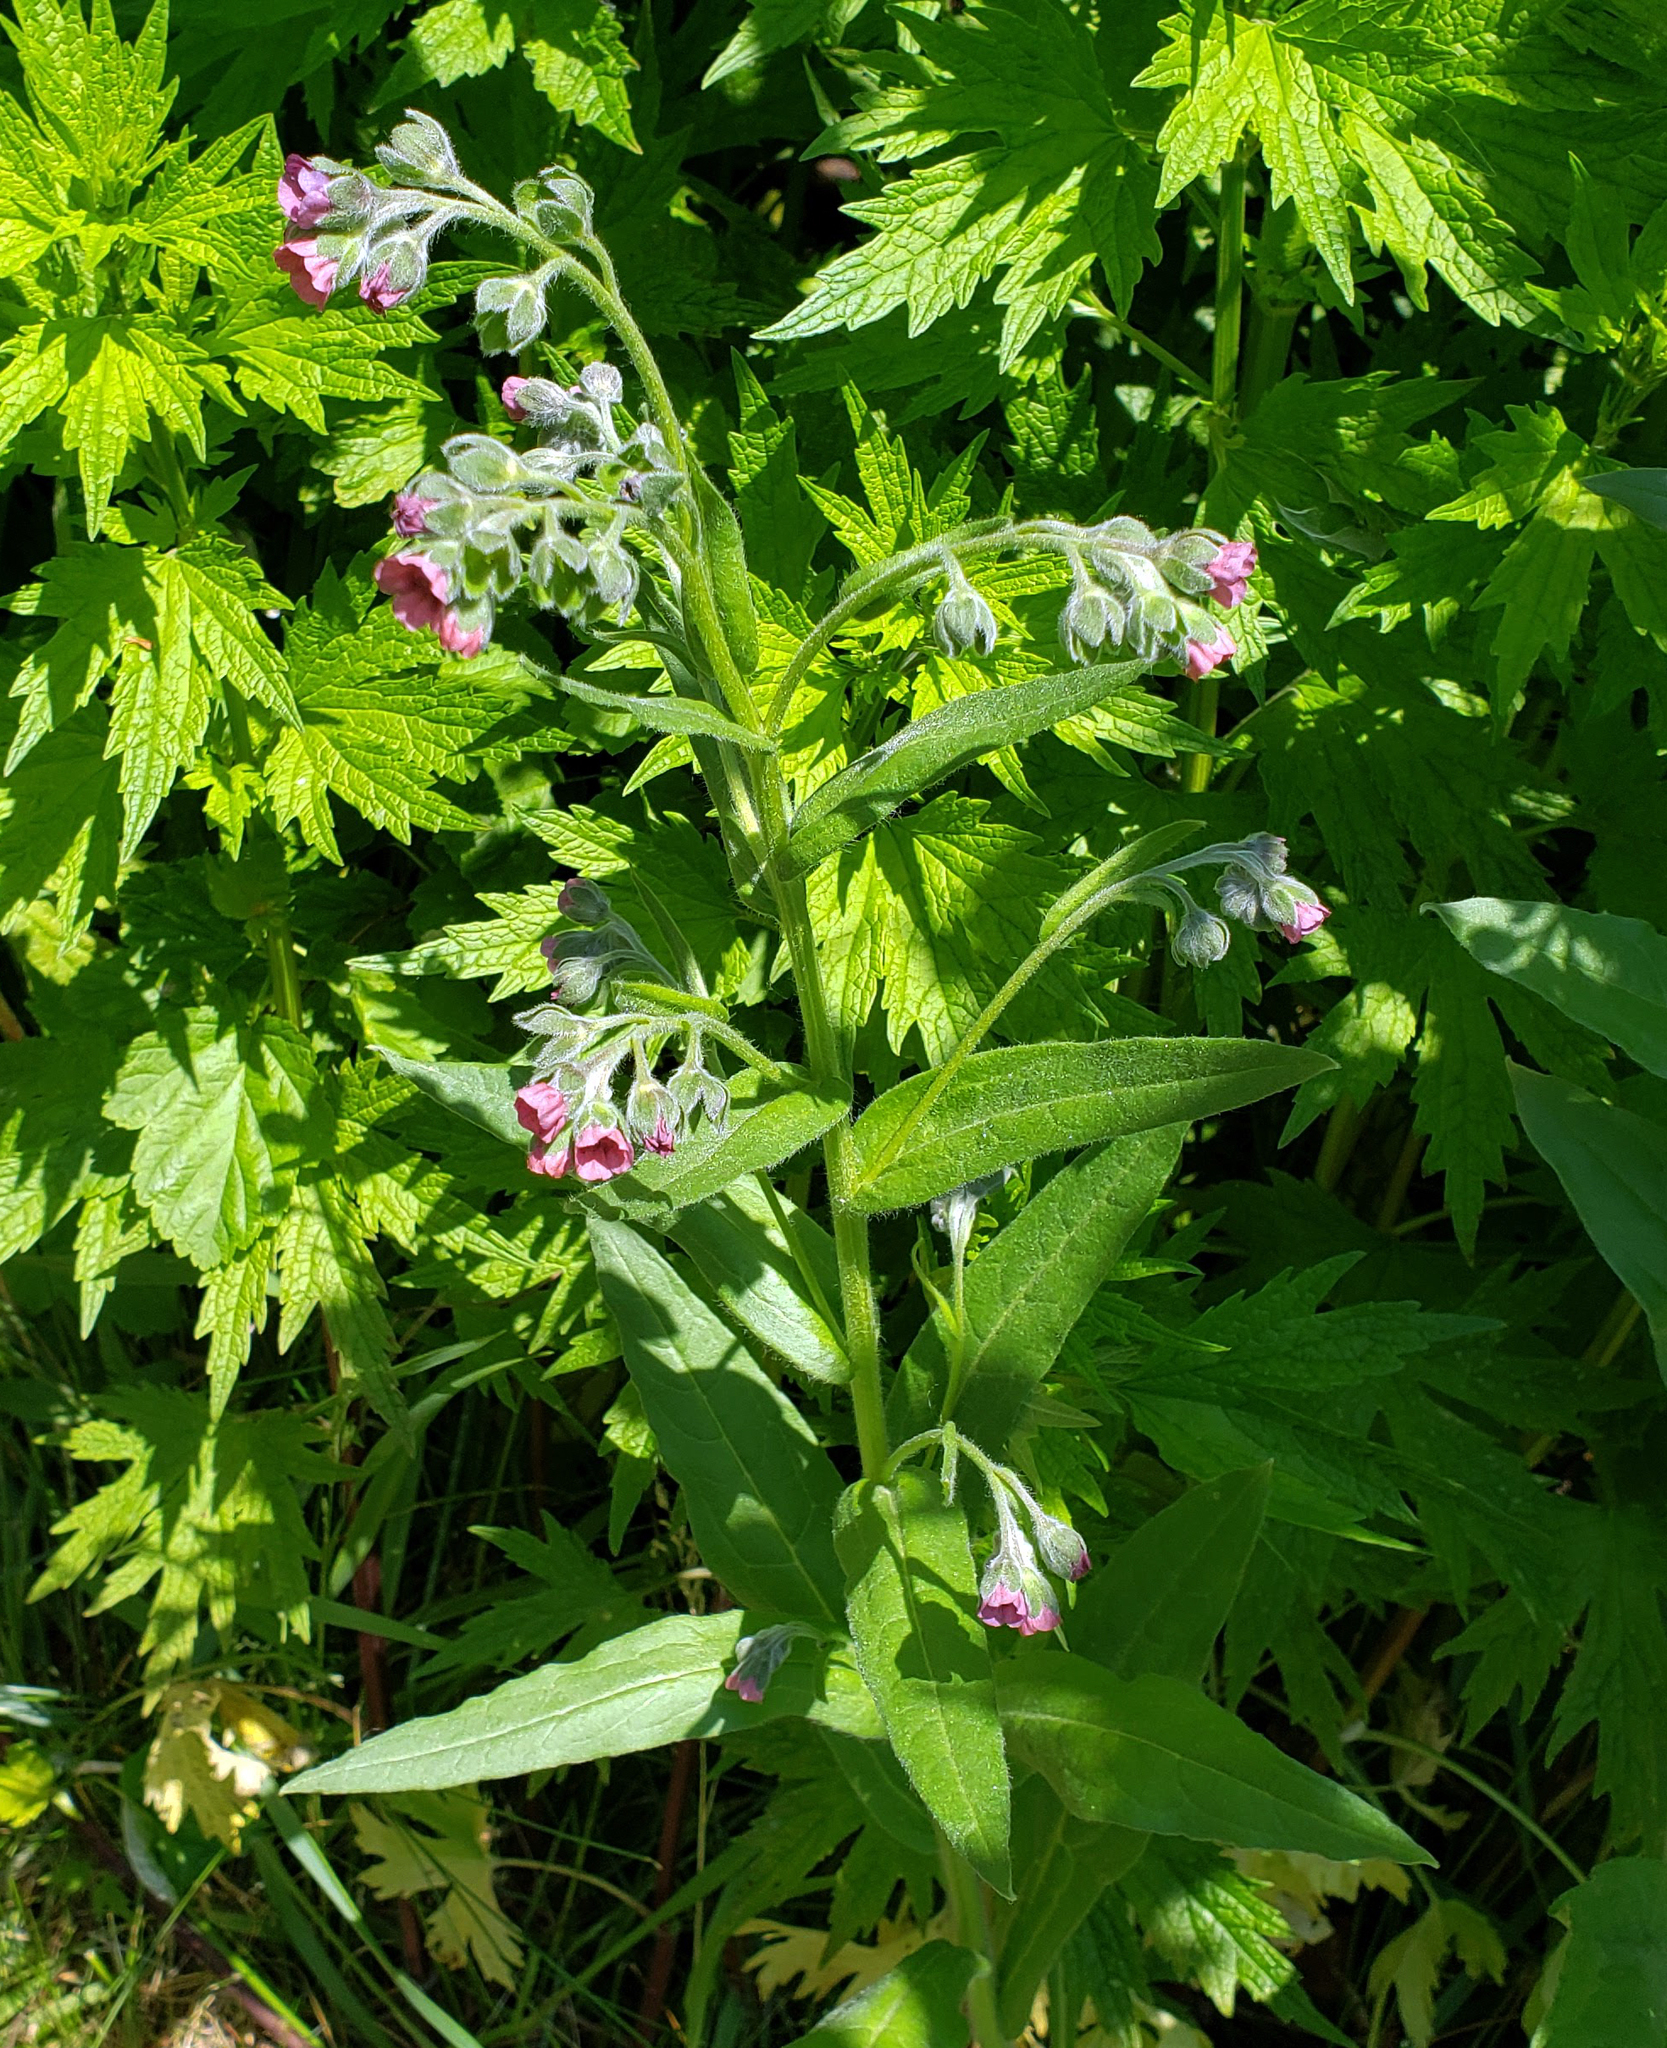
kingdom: Plantae
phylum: Tracheophyta
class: Magnoliopsida
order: Boraginales
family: Boraginaceae
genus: Cynoglossum
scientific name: Cynoglossum officinale
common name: Hound's-tongue
